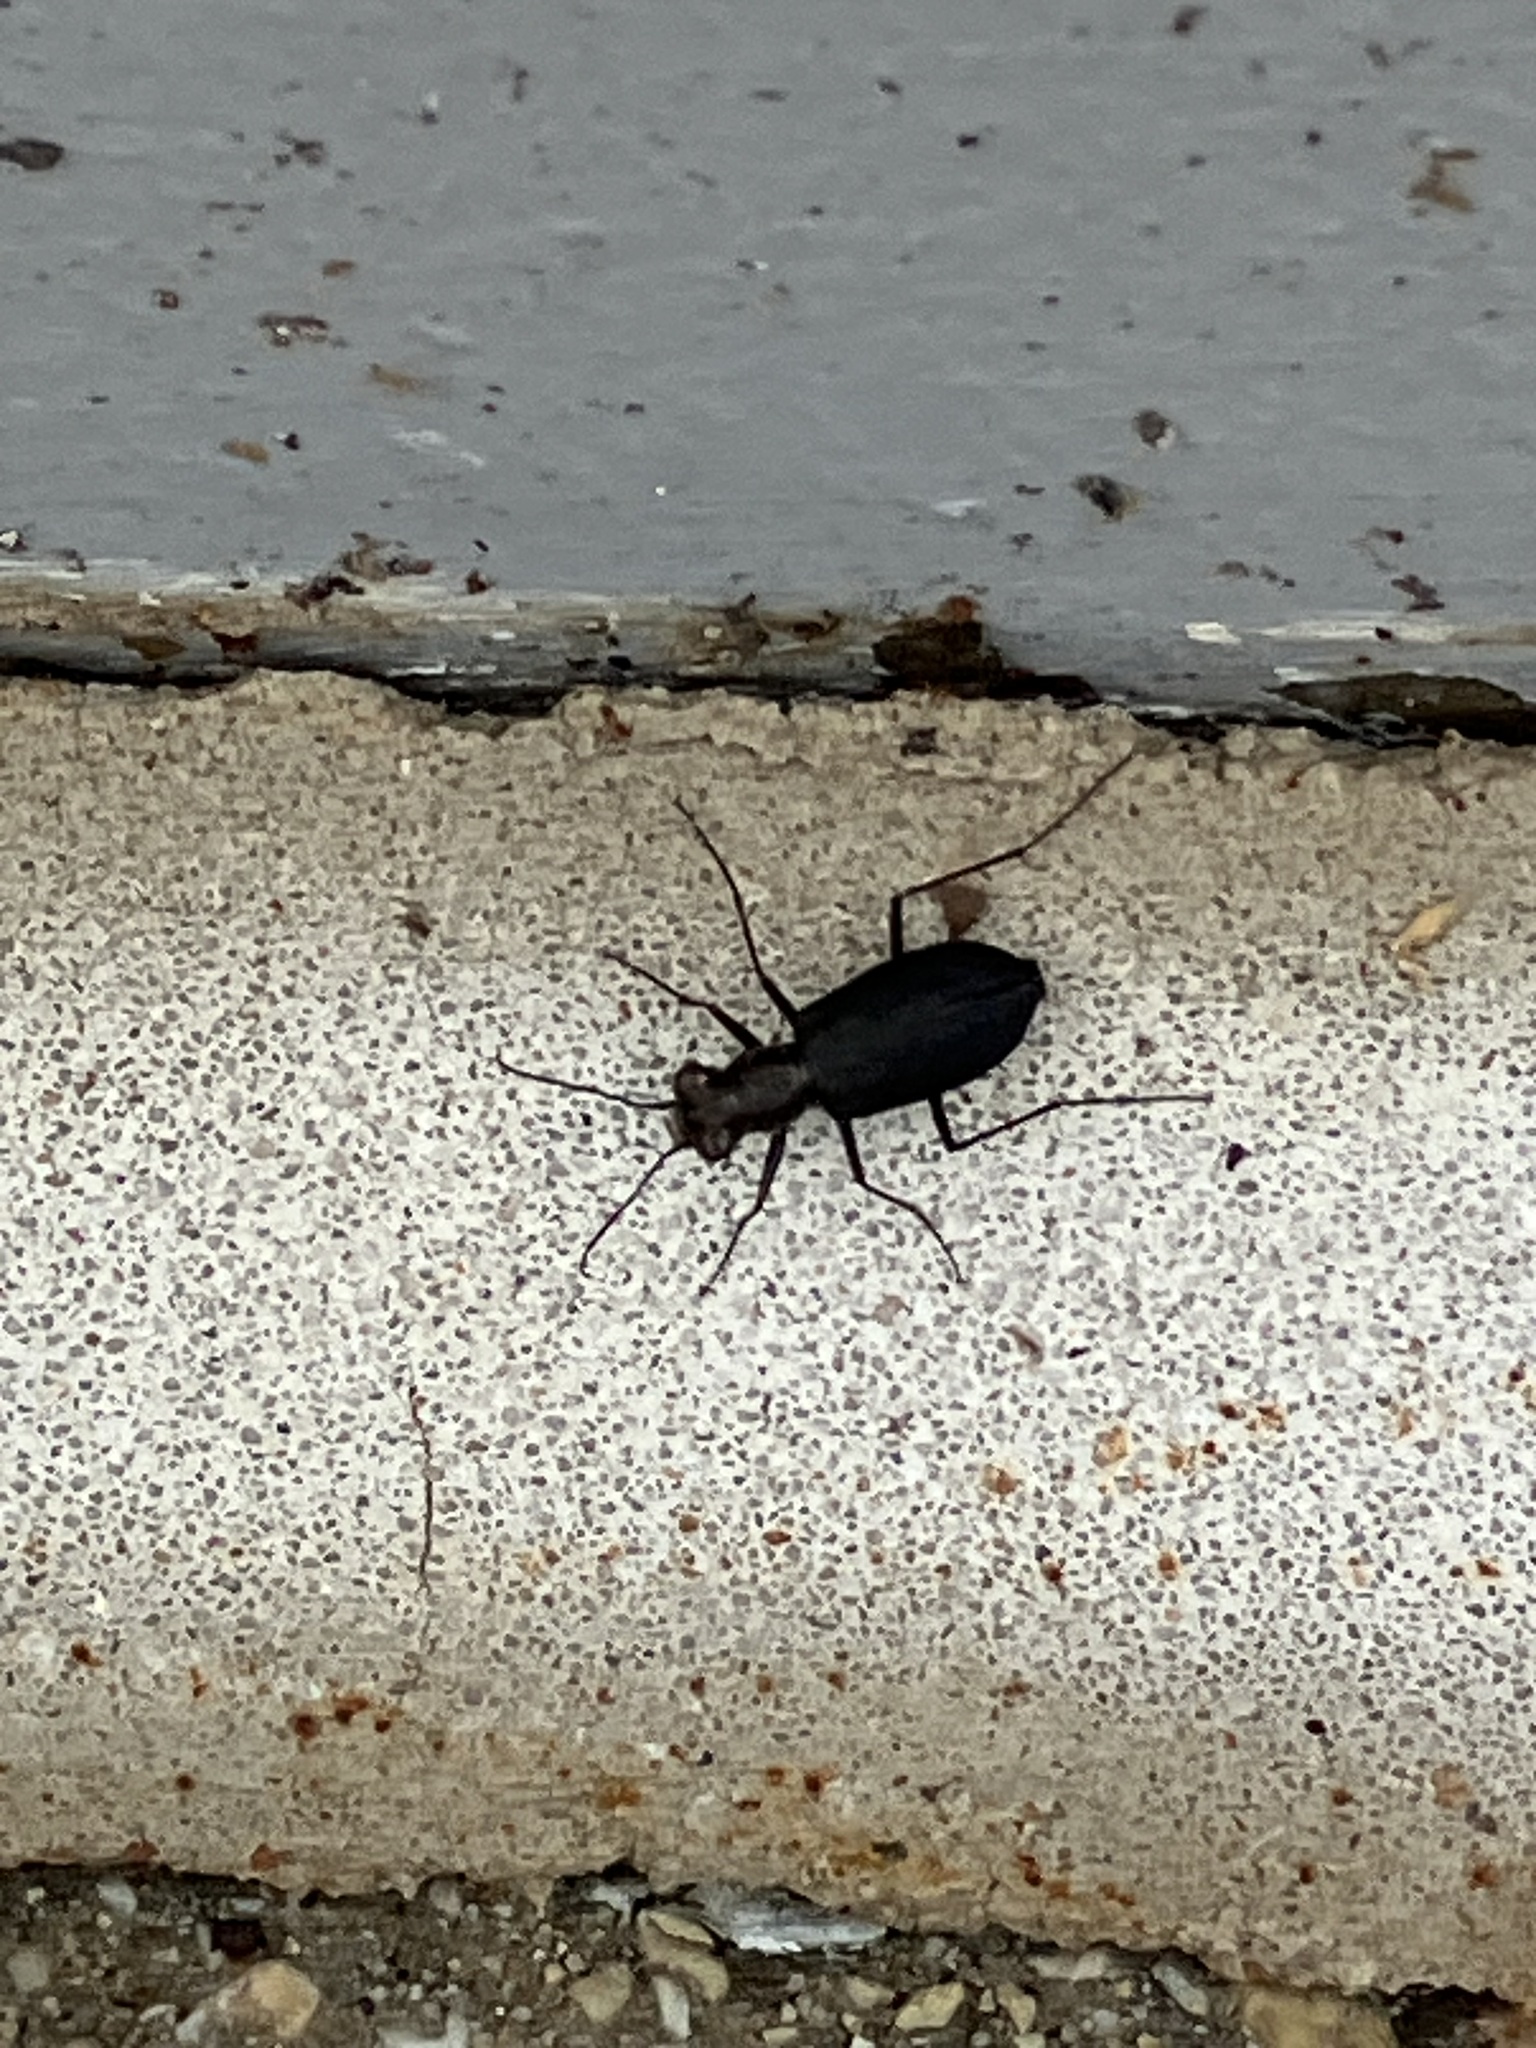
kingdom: Animalia
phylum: Arthropoda
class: Insecta
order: Coleoptera
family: Carabidae
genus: Cicindela
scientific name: Cicindela punctulata
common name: Punctured tiger beetle
